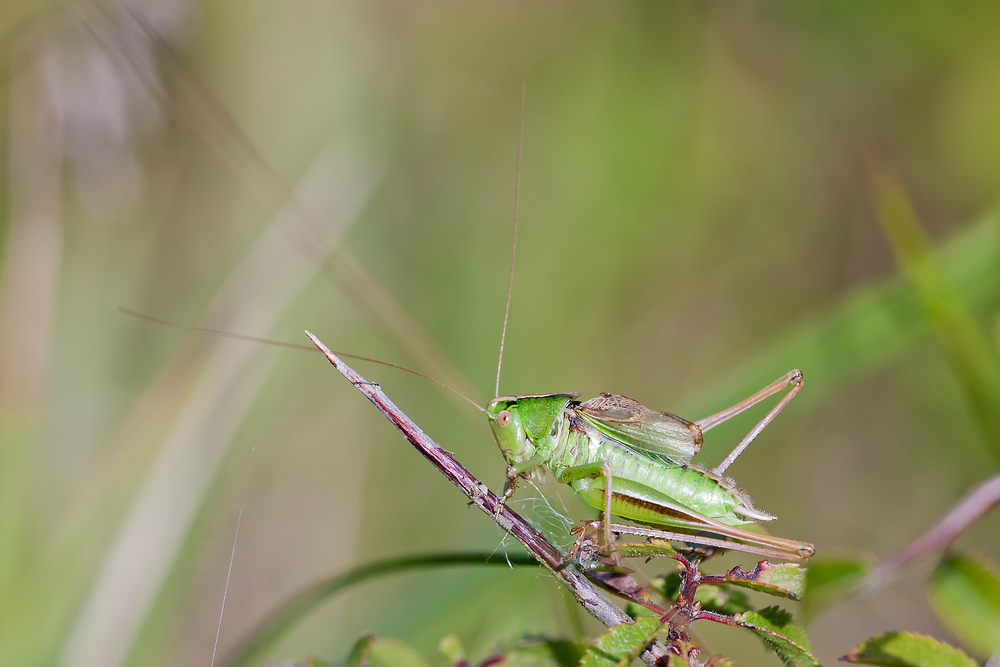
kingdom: Animalia
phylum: Arthropoda
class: Insecta
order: Orthoptera
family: Tettigoniidae
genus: Bicolorana
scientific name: Bicolorana bicolor
